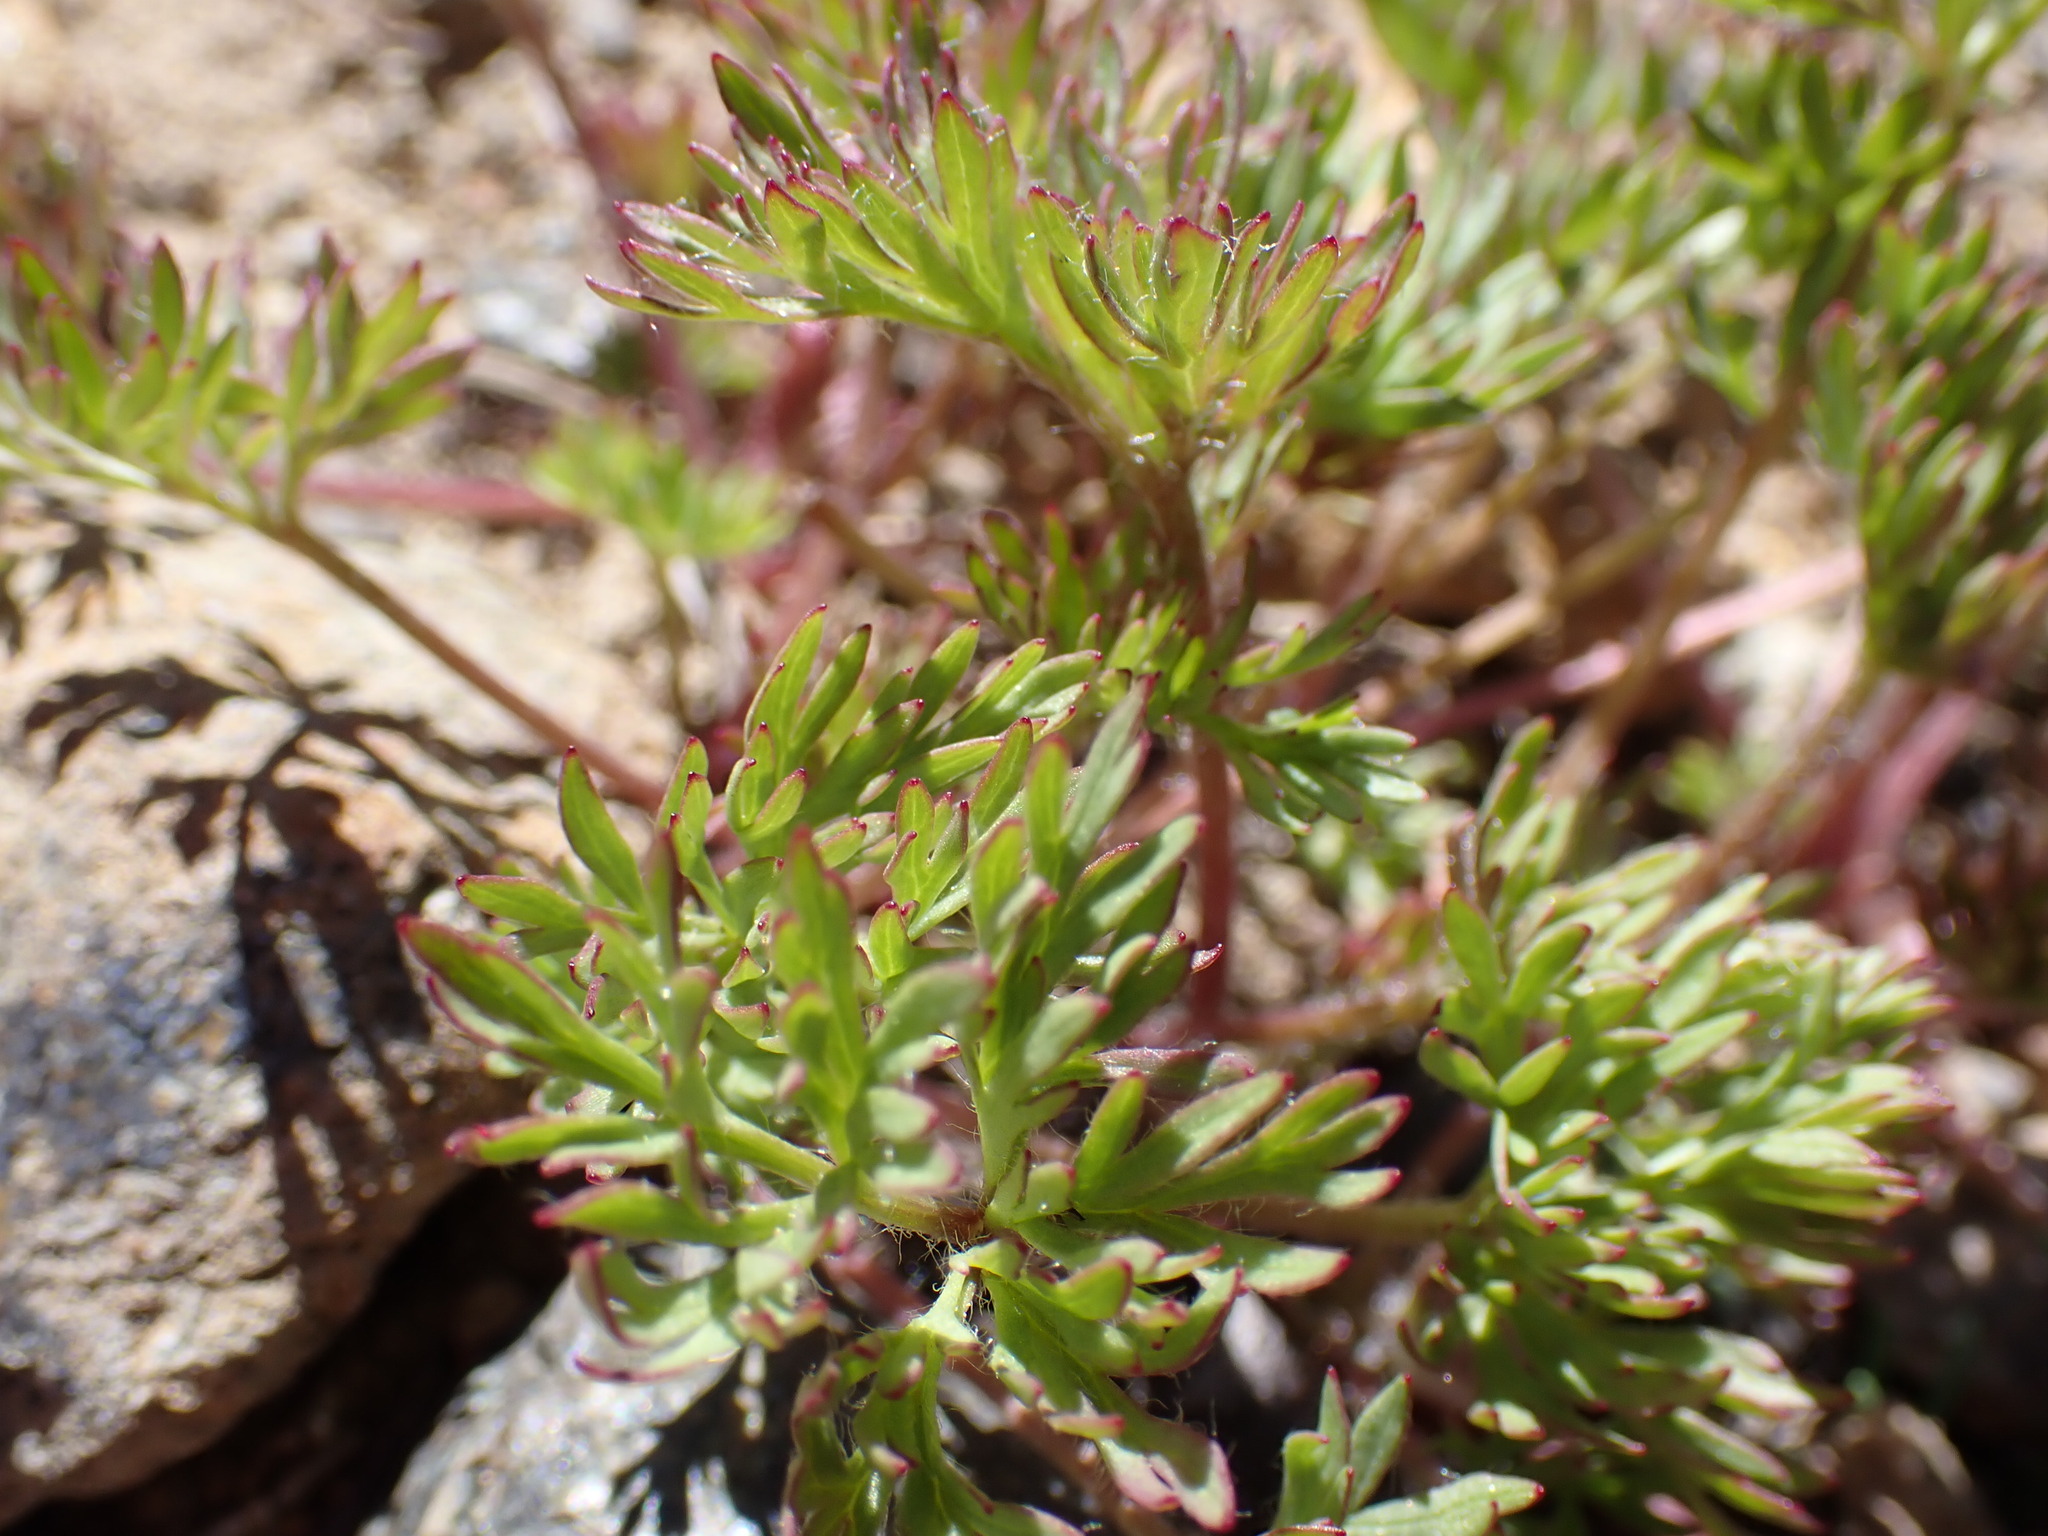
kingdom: Plantae
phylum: Tracheophyta
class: Magnoliopsida
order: Ranunculales
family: Ranunculaceae
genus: Anemone
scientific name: Anemone drummondii
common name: Drummond's anemone
